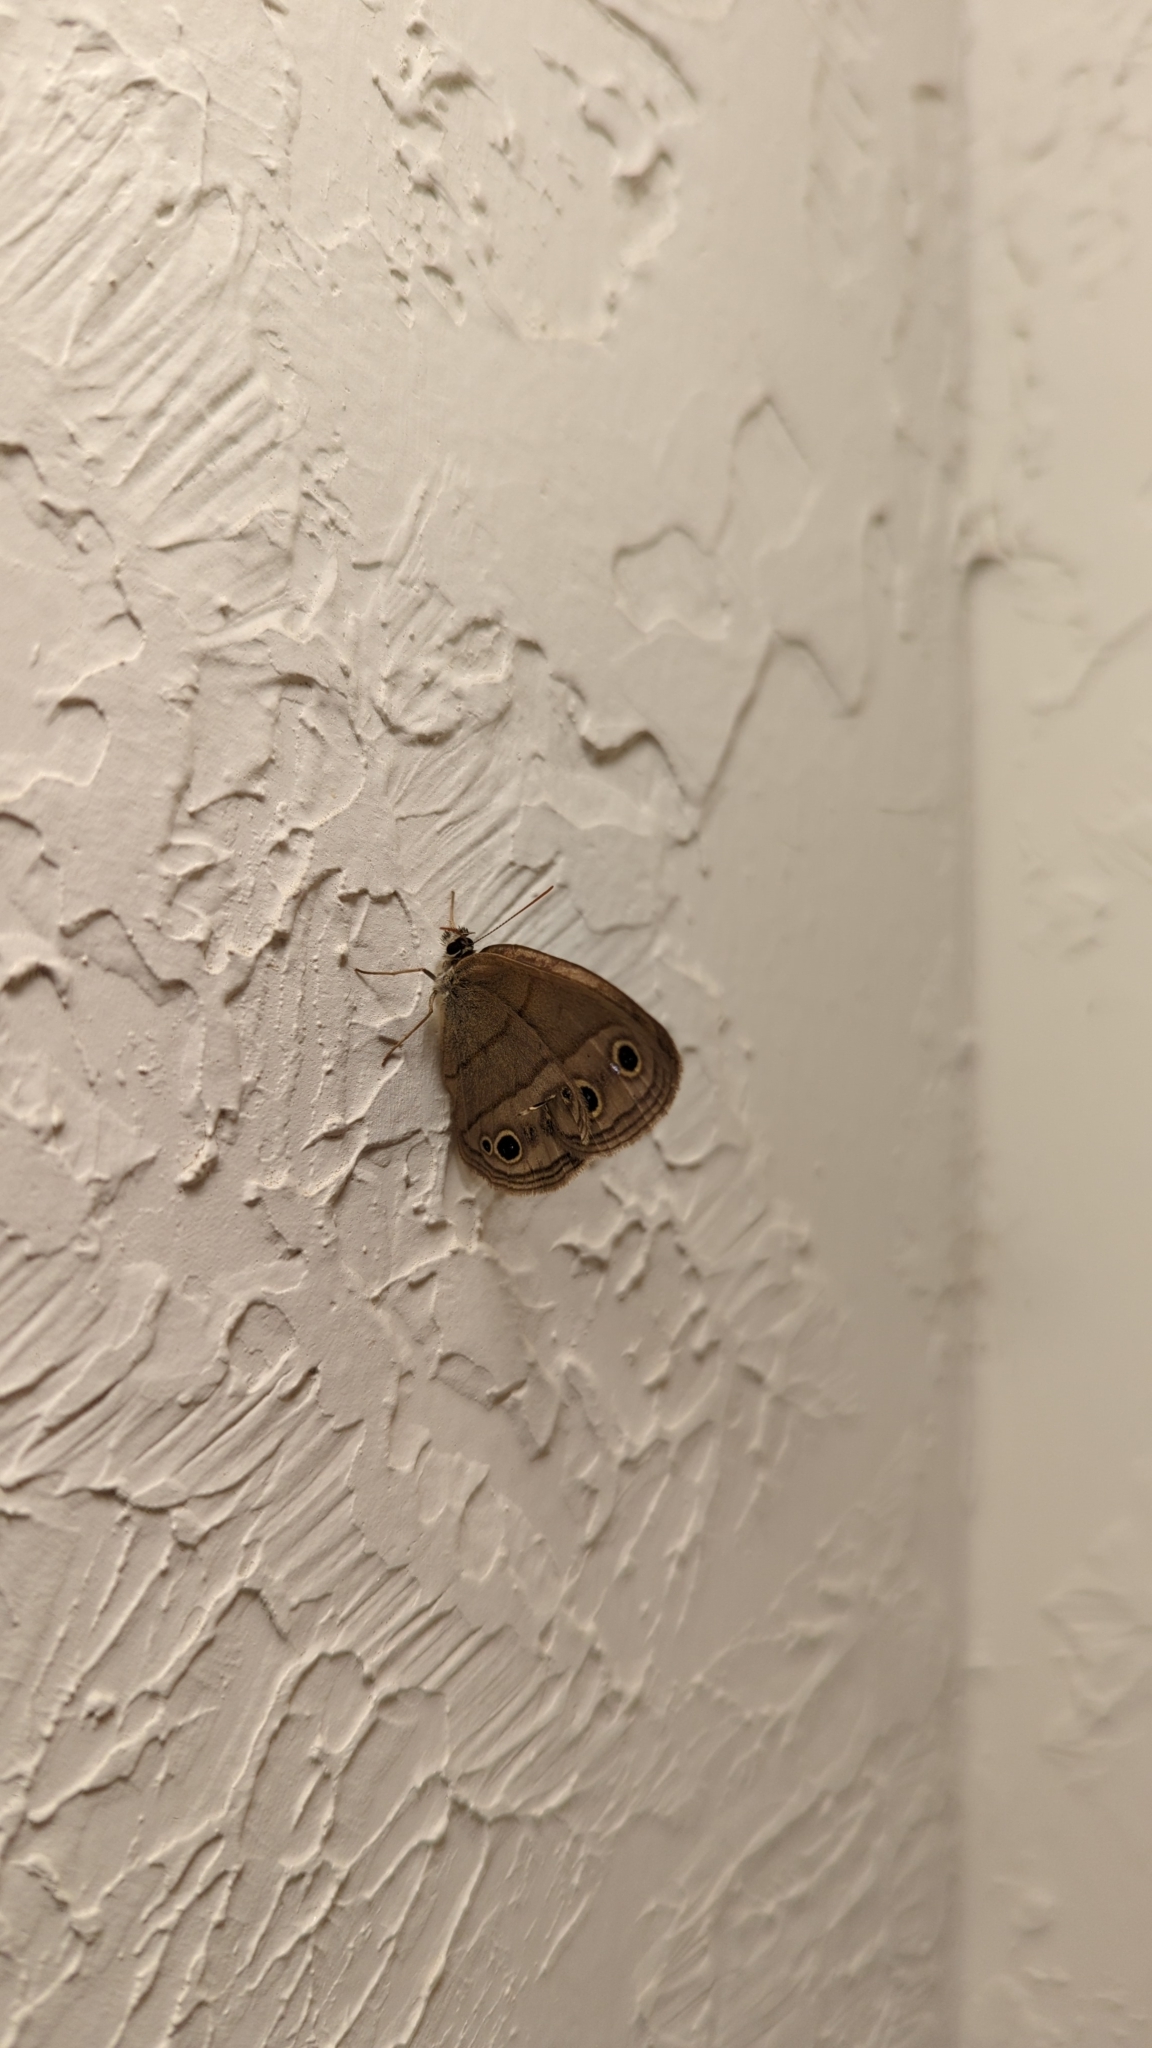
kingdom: Animalia
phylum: Arthropoda
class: Insecta
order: Lepidoptera
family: Nymphalidae
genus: Euptychia
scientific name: Euptychia cymela
